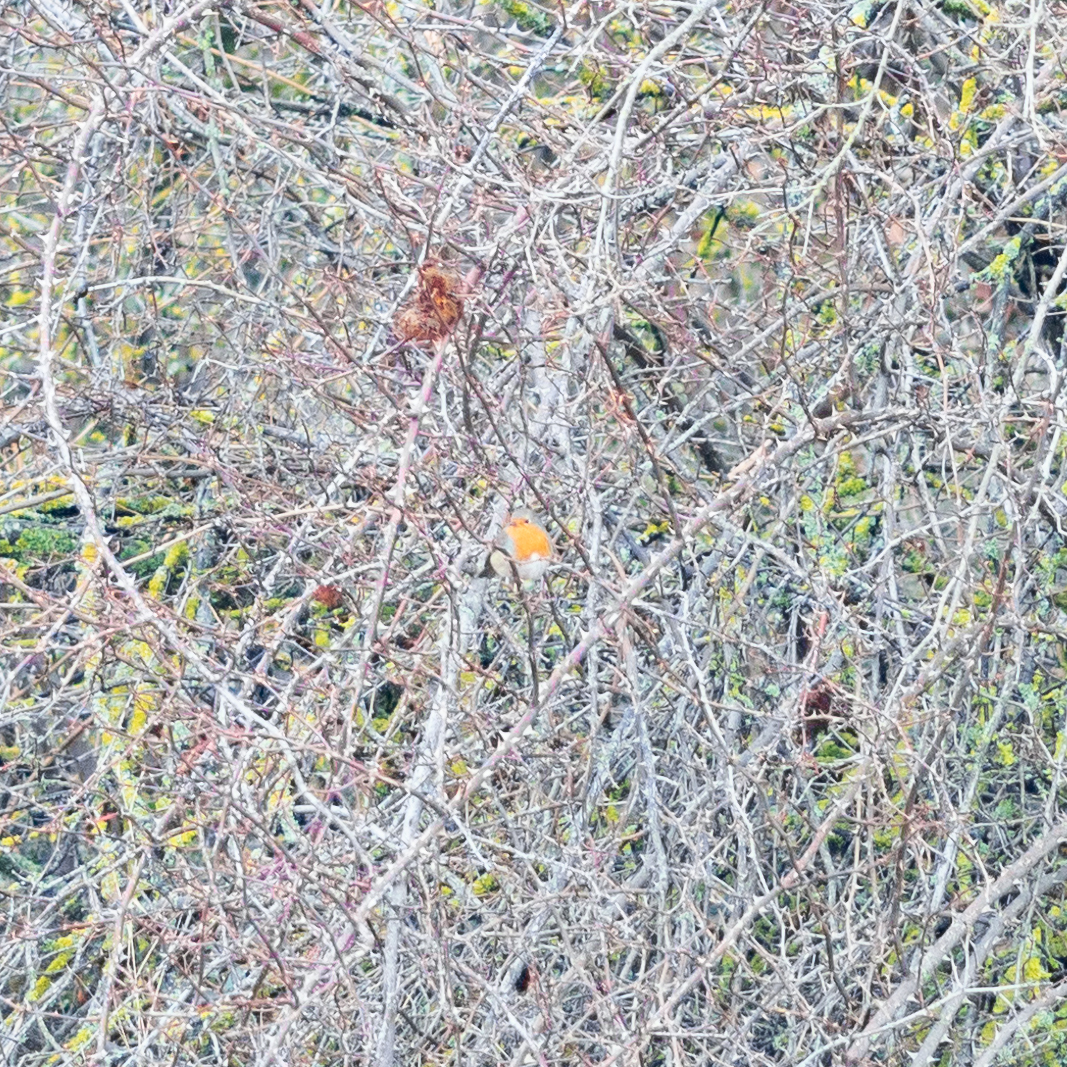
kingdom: Animalia
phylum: Chordata
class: Aves
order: Passeriformes
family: Muscicapidae
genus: Erithacus
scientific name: Erithacus rubecula
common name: European robin
